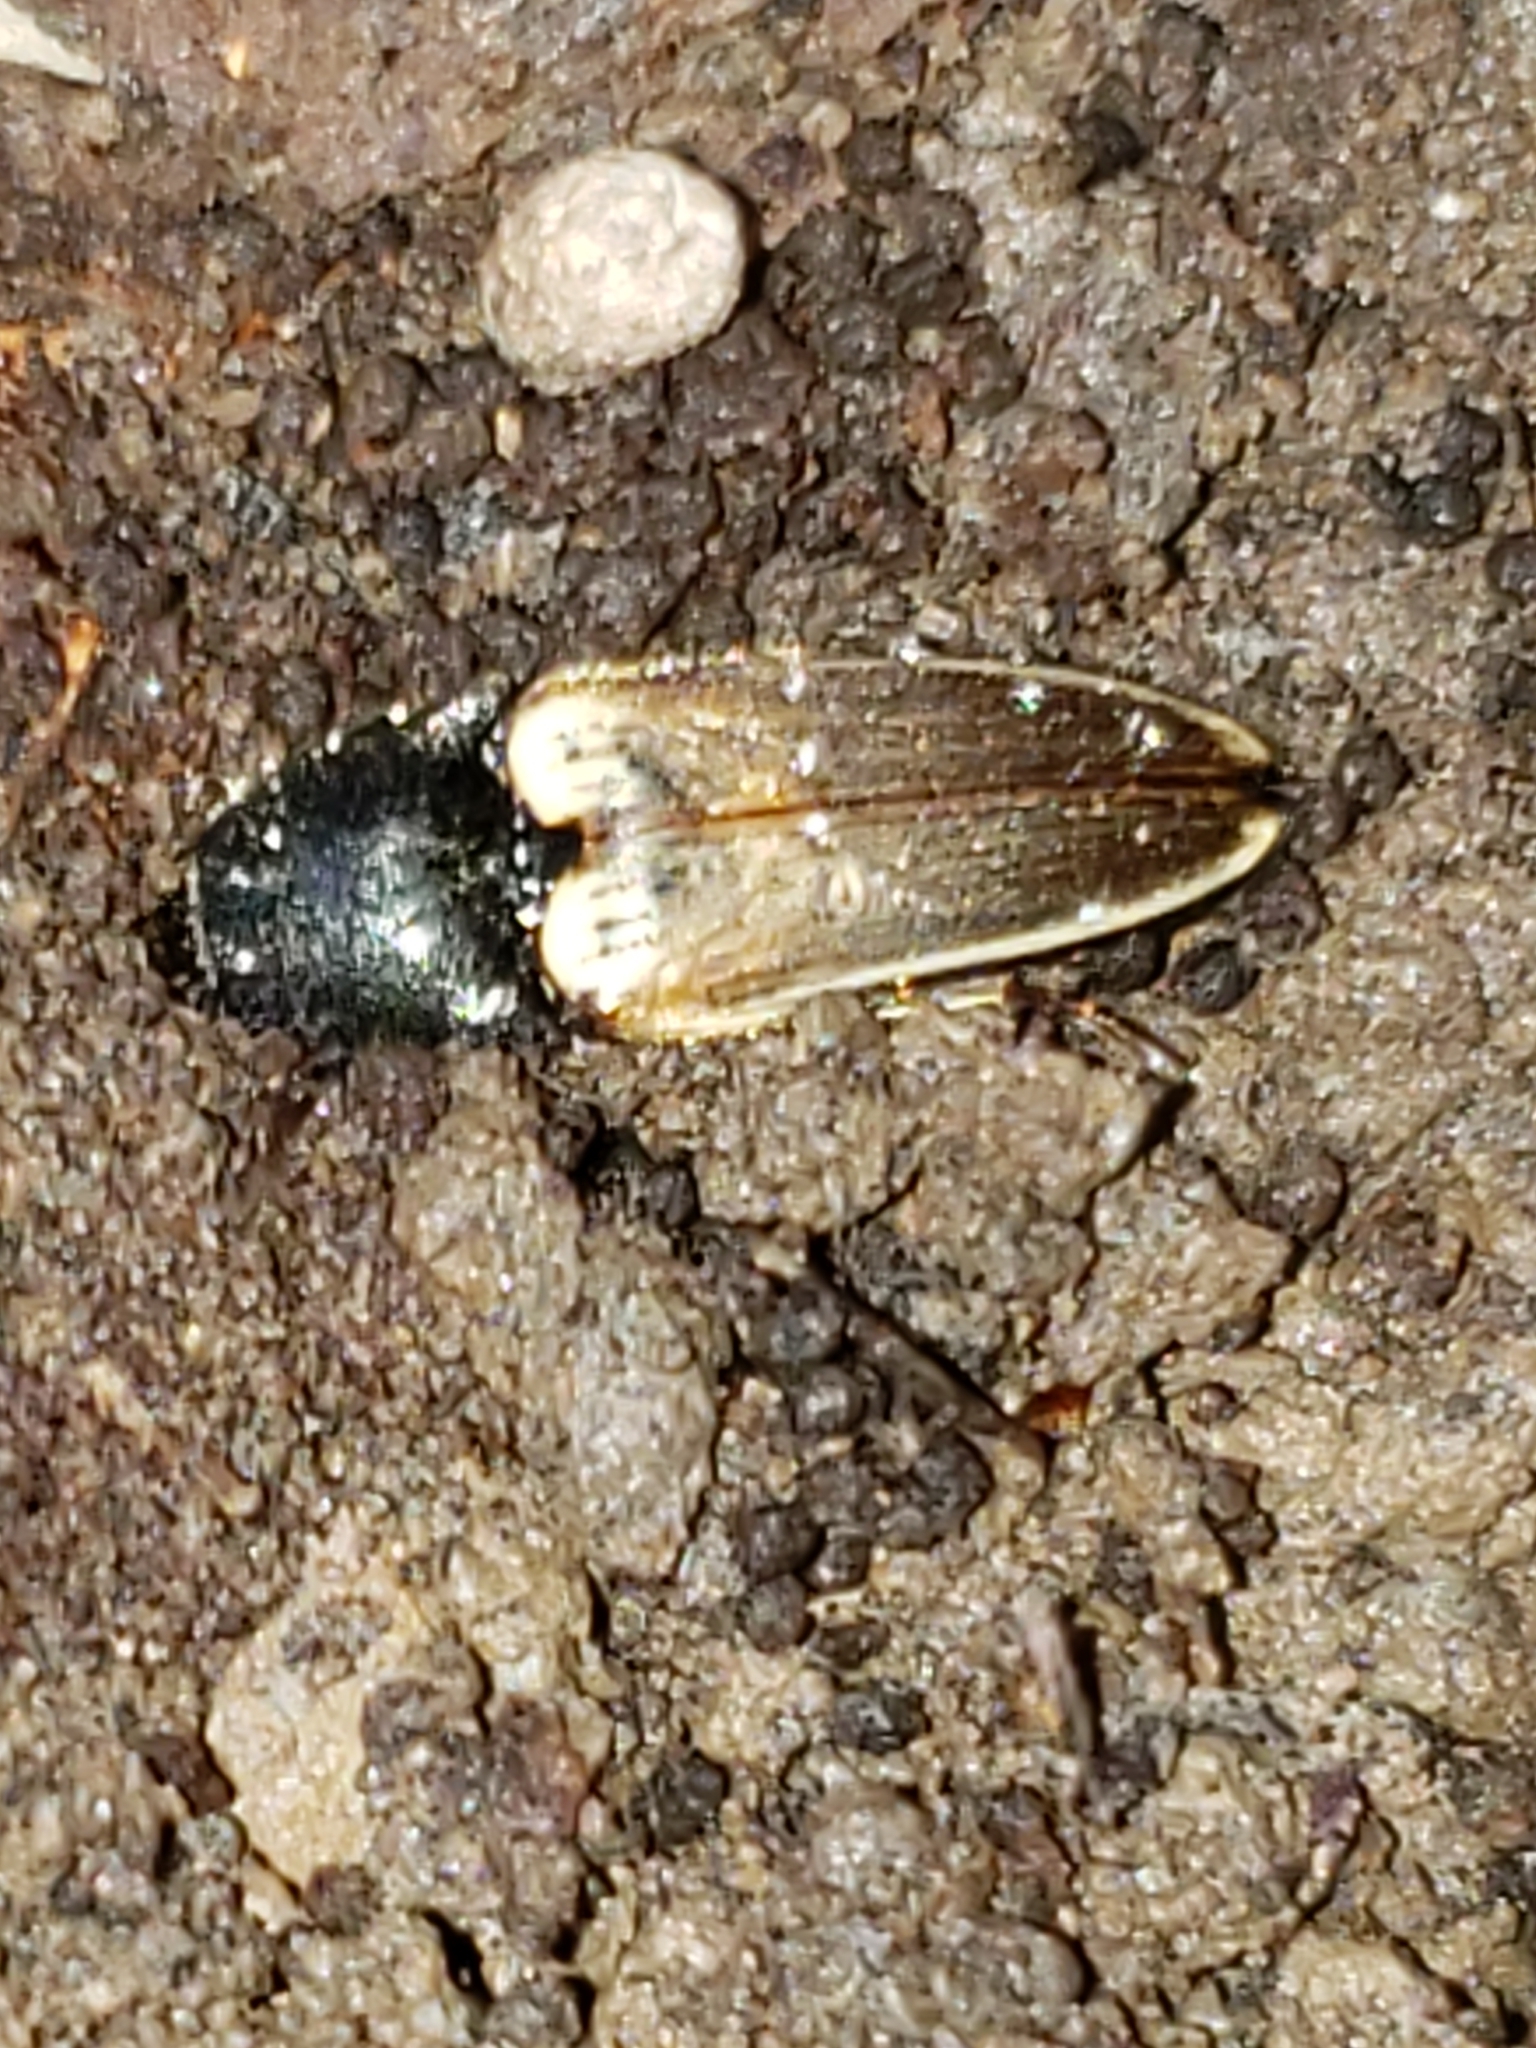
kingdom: Animalia
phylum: Arthropoda
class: Insecta
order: Coleoptera
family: Elateridae
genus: Ampedus
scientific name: Ampedus nigricollis
